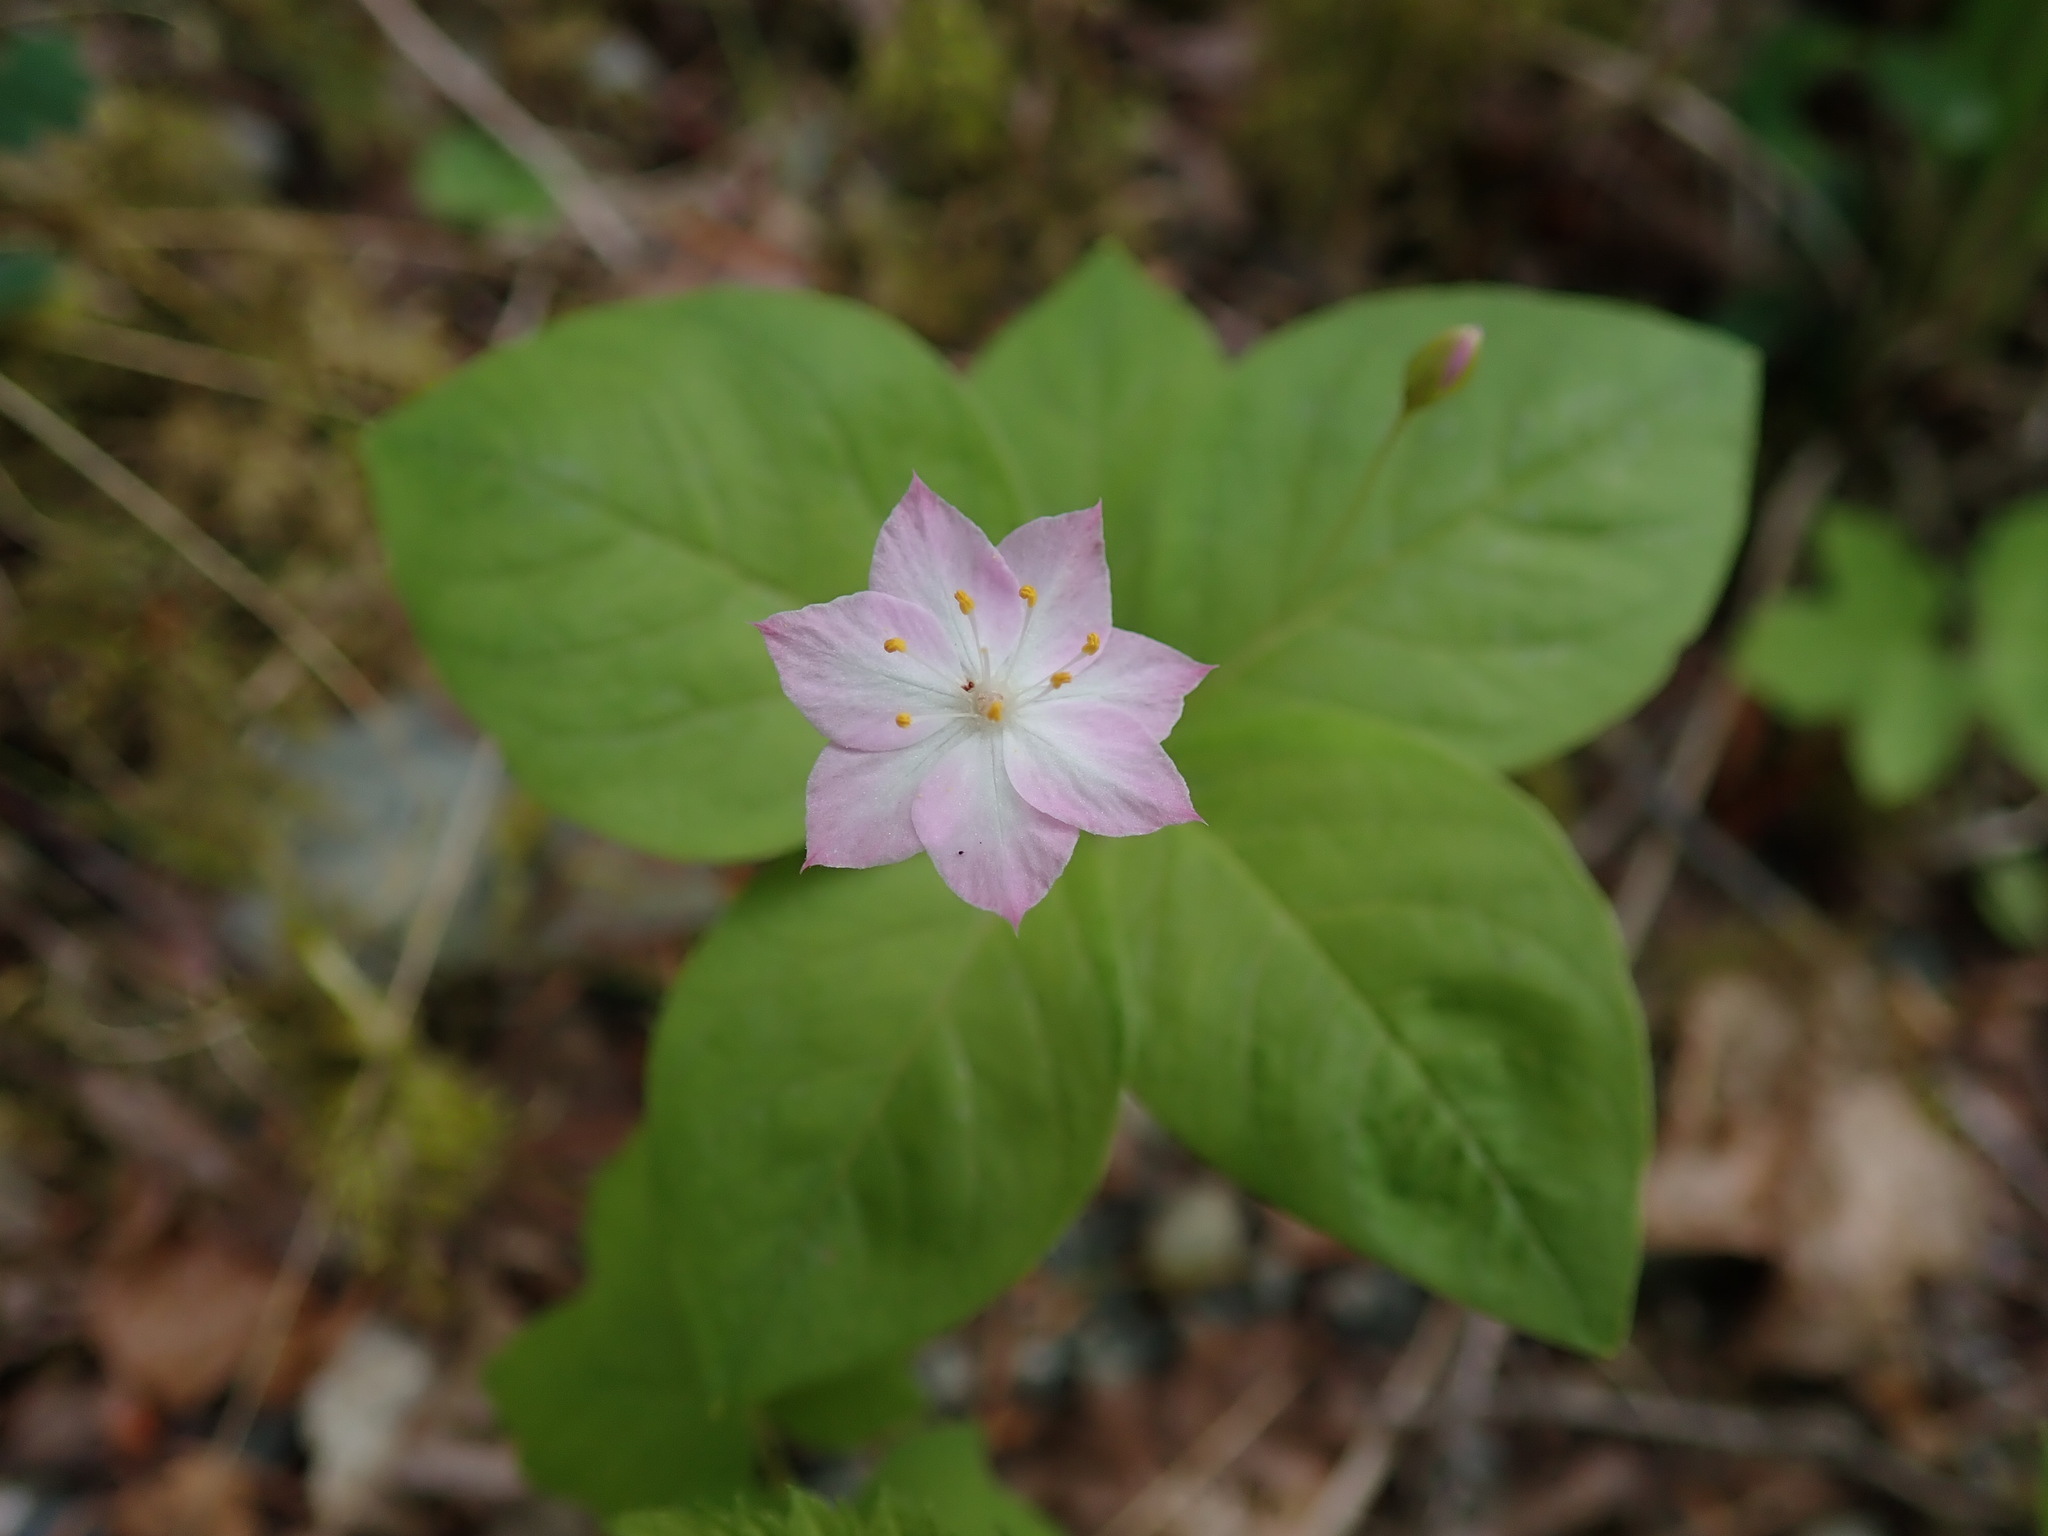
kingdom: Plantae
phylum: Tracheophyta
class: Magnoliopsida
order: Ericales
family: Primulaceae
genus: Lysimachia
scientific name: Lysimachia latifolia
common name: Pacific starflower
